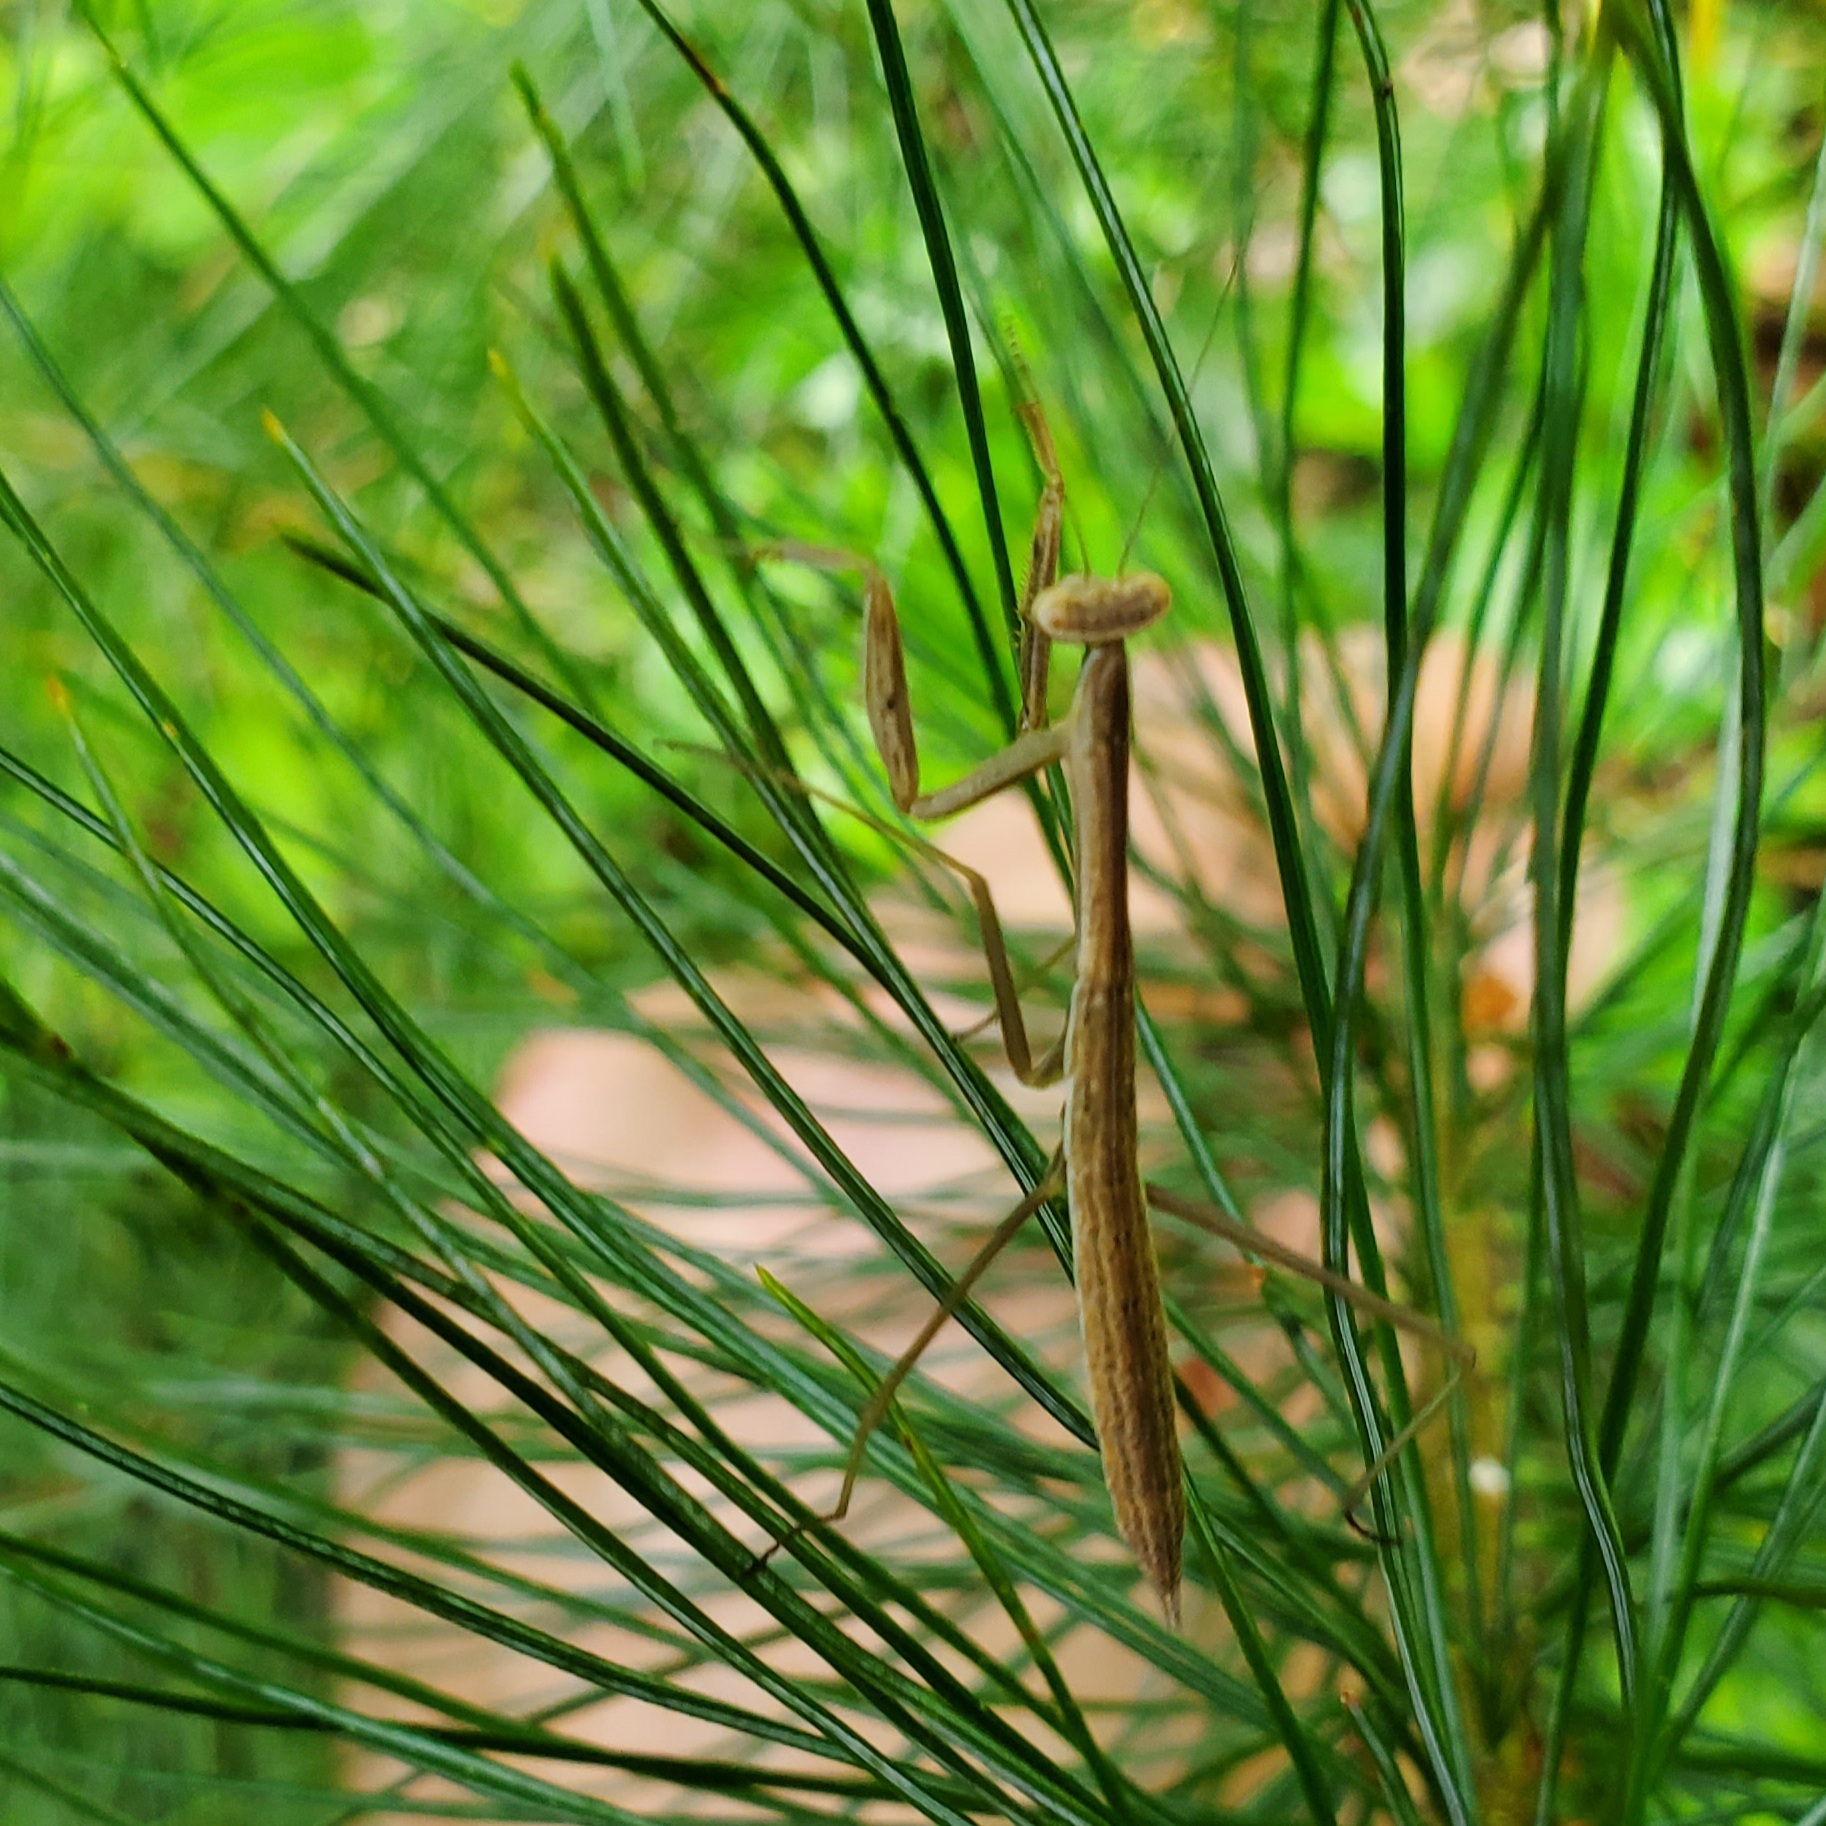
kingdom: Animalia
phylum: Arthropoda
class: Insecta
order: Mantodea
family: Mantidae
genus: Tenodera
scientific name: Tenodera sinensis
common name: Chinese mantis
